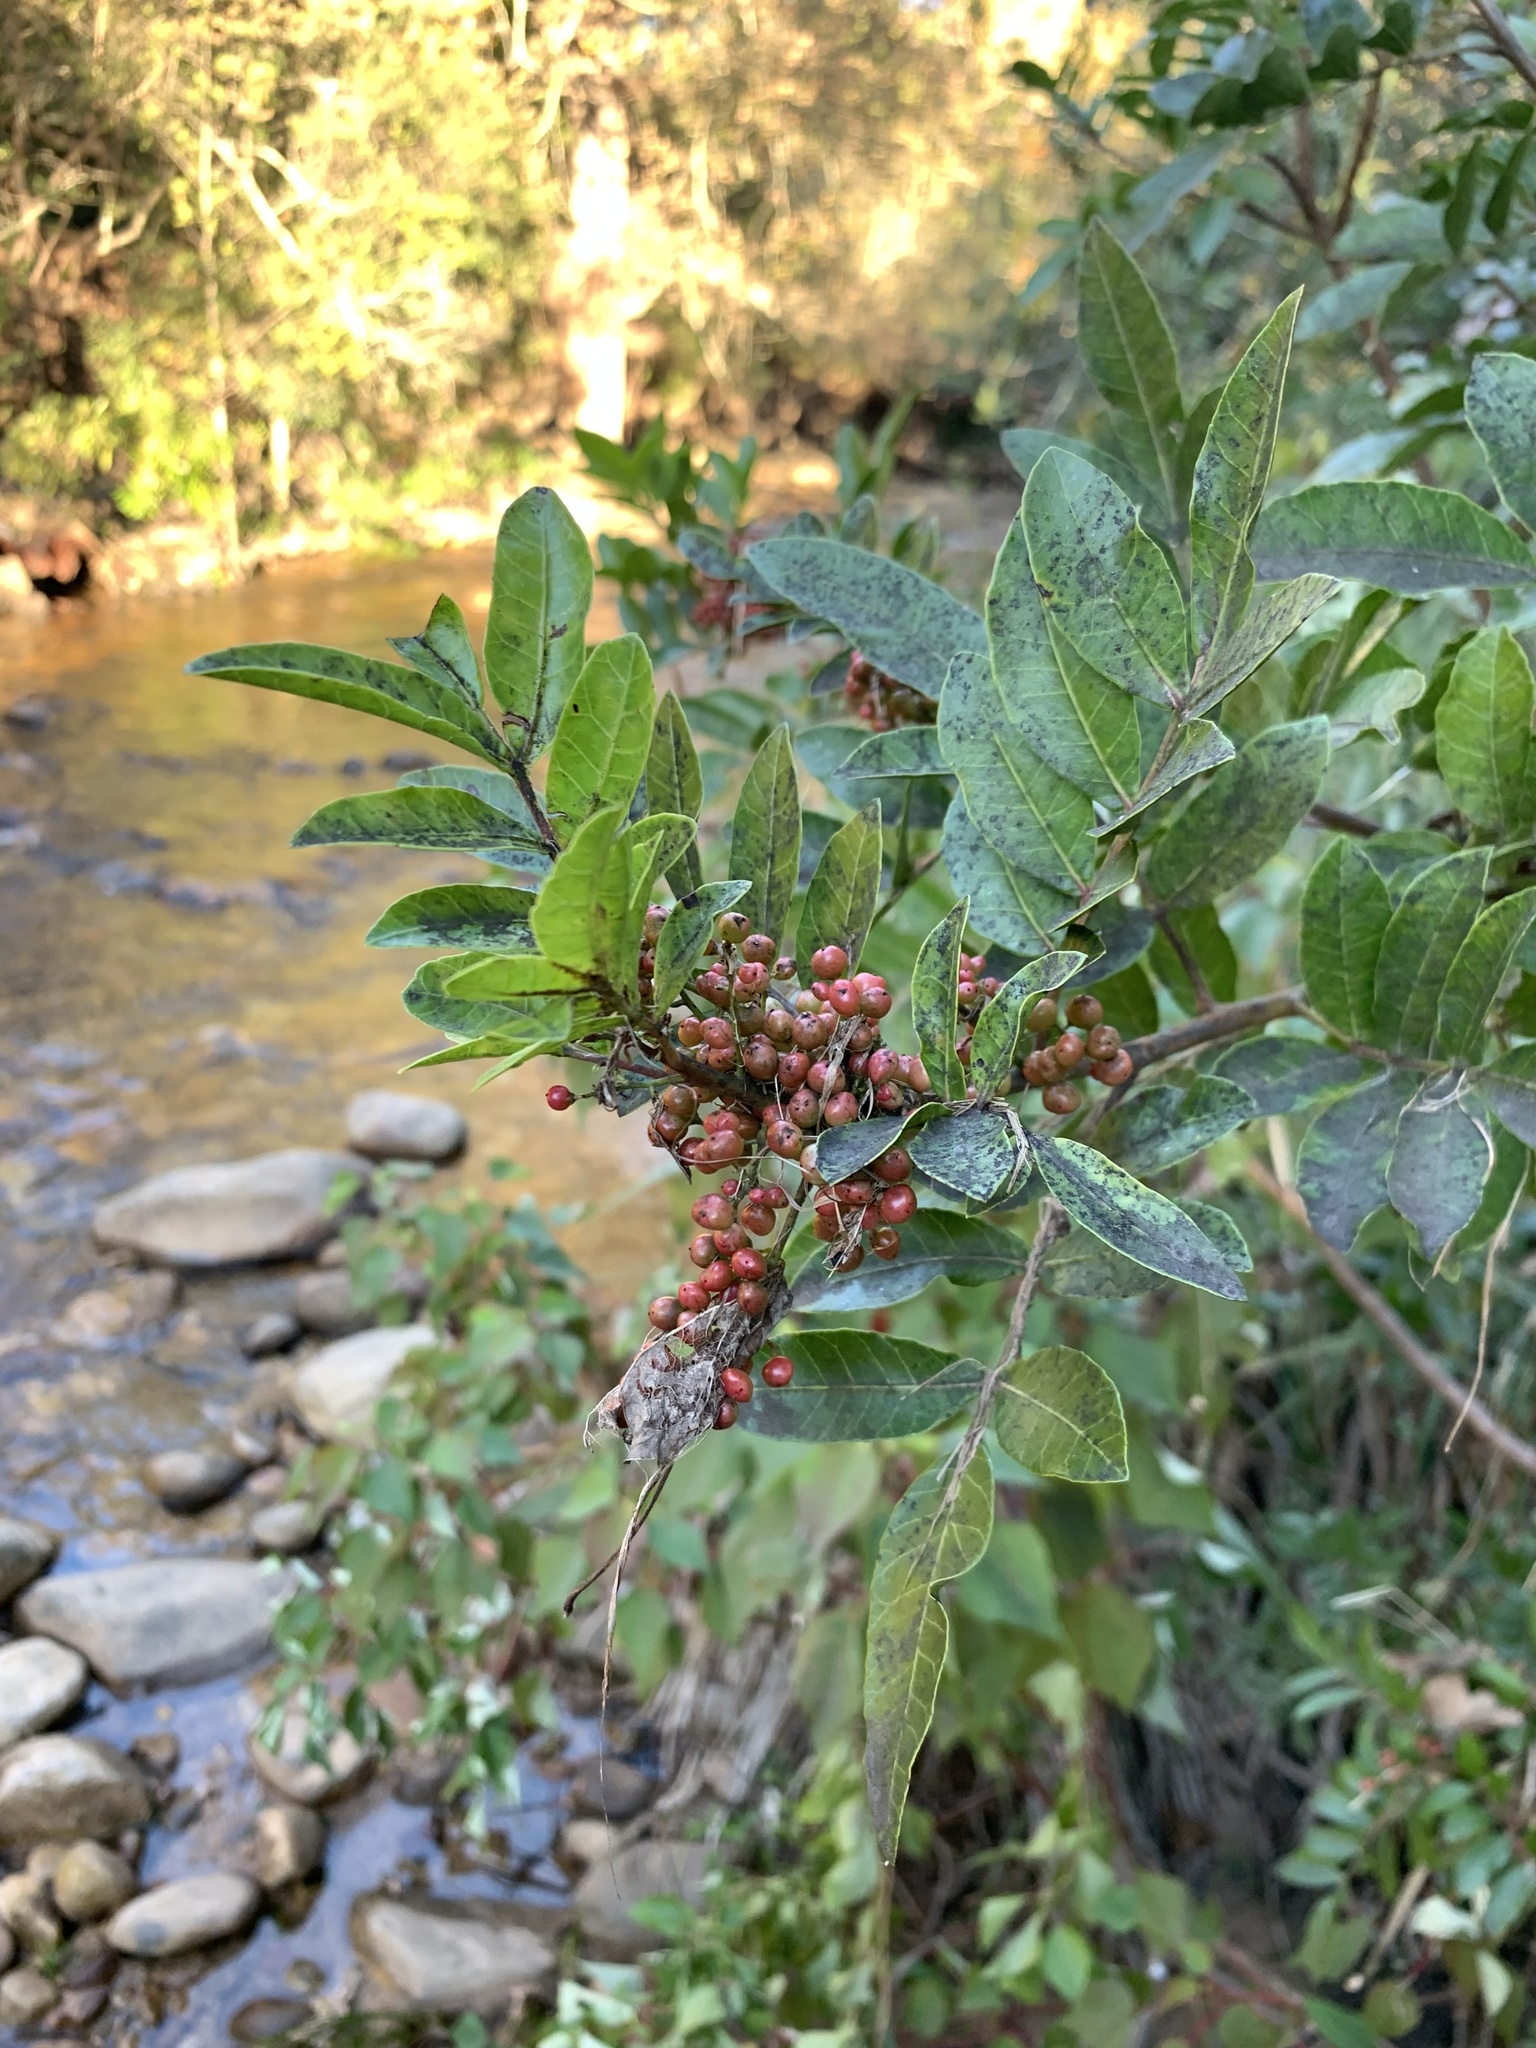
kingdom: Plantae
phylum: Tracheophyta
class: Magnoliopsida
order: Sapindales
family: Anacardiaceae
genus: Schinus
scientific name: Schinus terebinthifolia
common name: Brazilian peppertree
